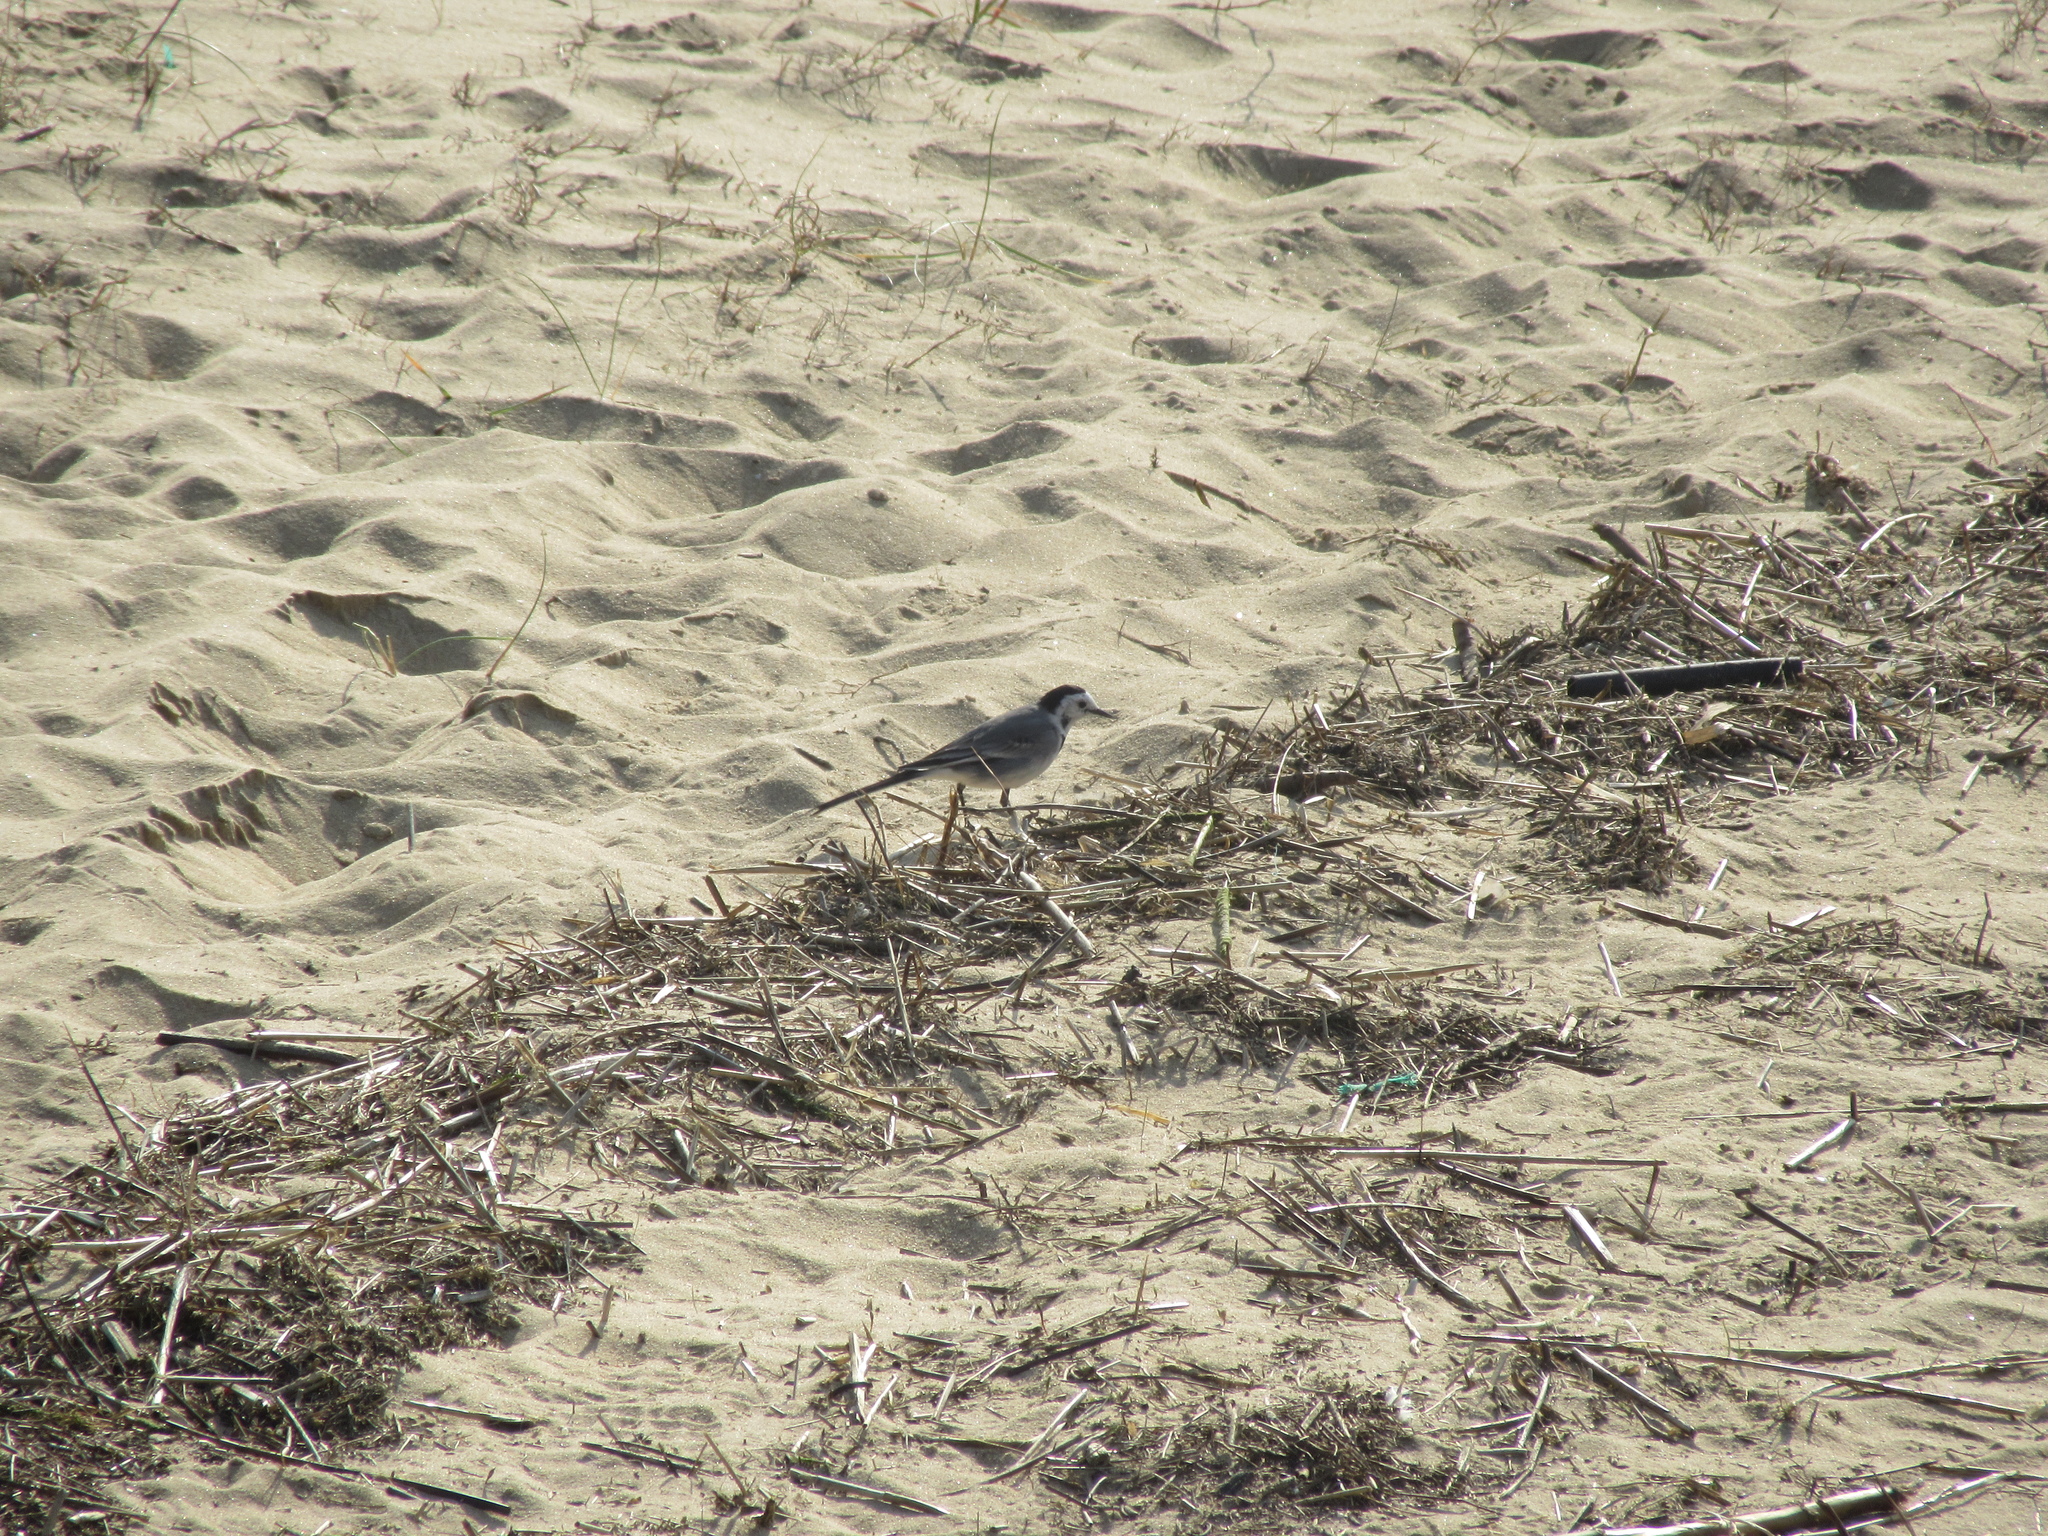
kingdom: Animalia
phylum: Chordata
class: Aves
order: Passeriformes
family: Motacillidae
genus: Motacilla
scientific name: Motacilla alba
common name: White wagtail
